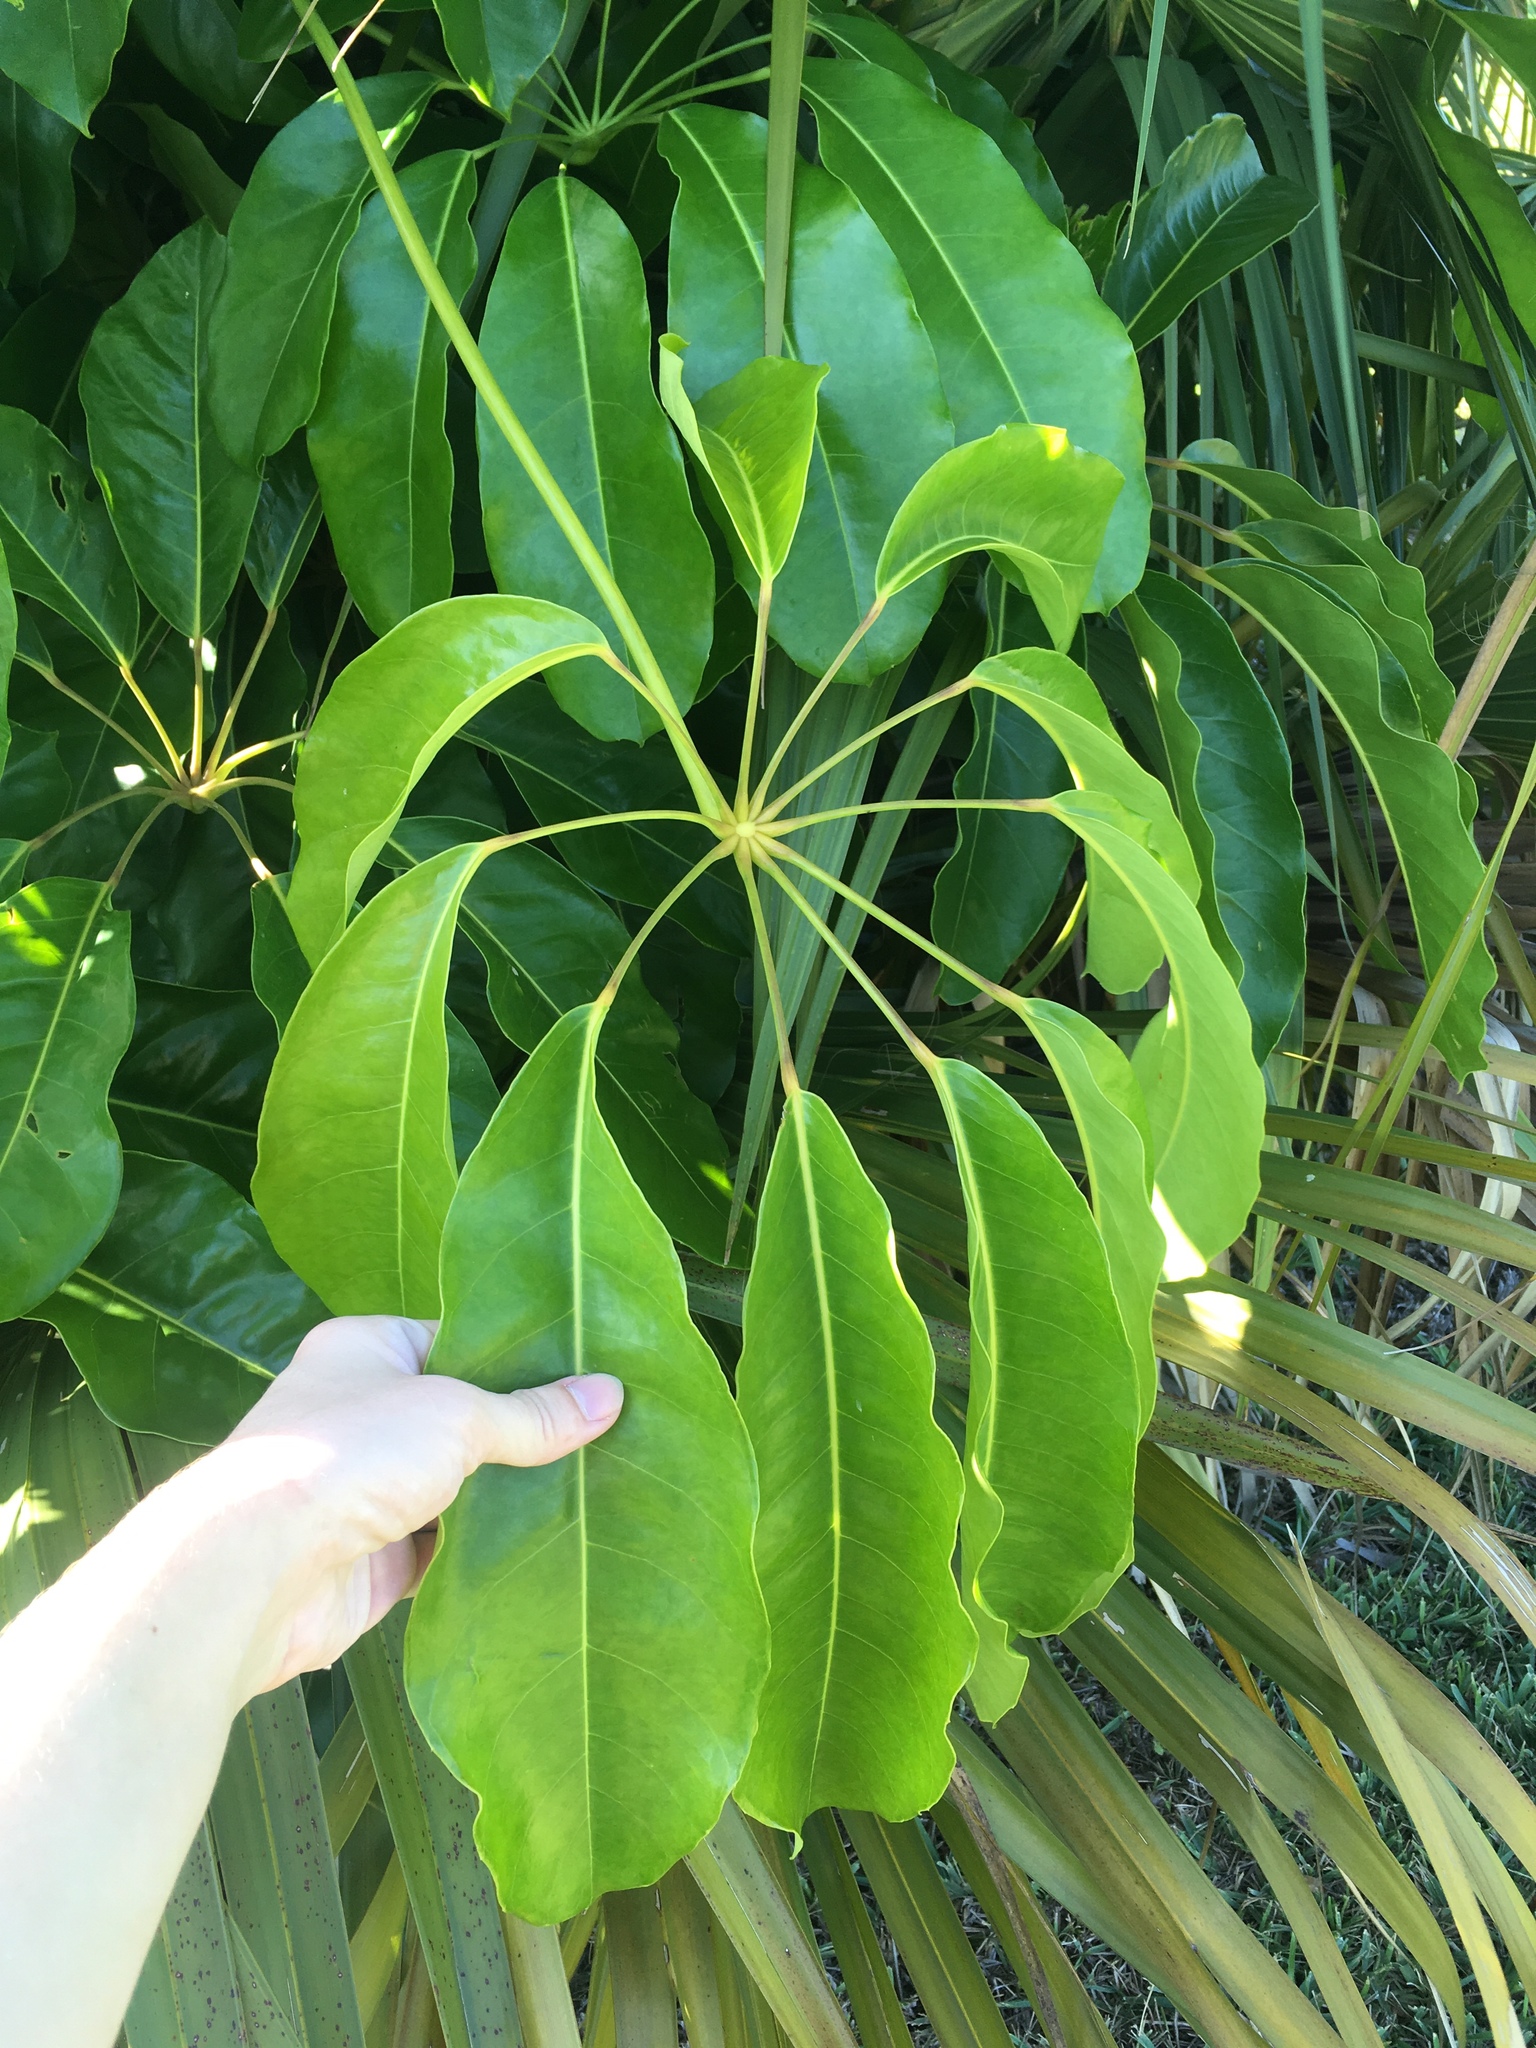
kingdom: Plantae
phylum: Tracheophyta
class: Magnoliopsida
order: Apiales
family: Araliaceae
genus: Heptapleurum
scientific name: Heptapleurum actinophyllum
